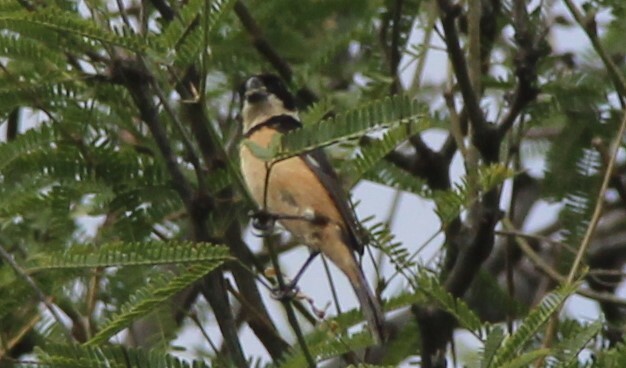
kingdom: Animalia
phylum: Chordata
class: Aves
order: Passeriformes
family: Thraupidae
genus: Sporophila
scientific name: Sporophila torqueola
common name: White-collared seedeater
